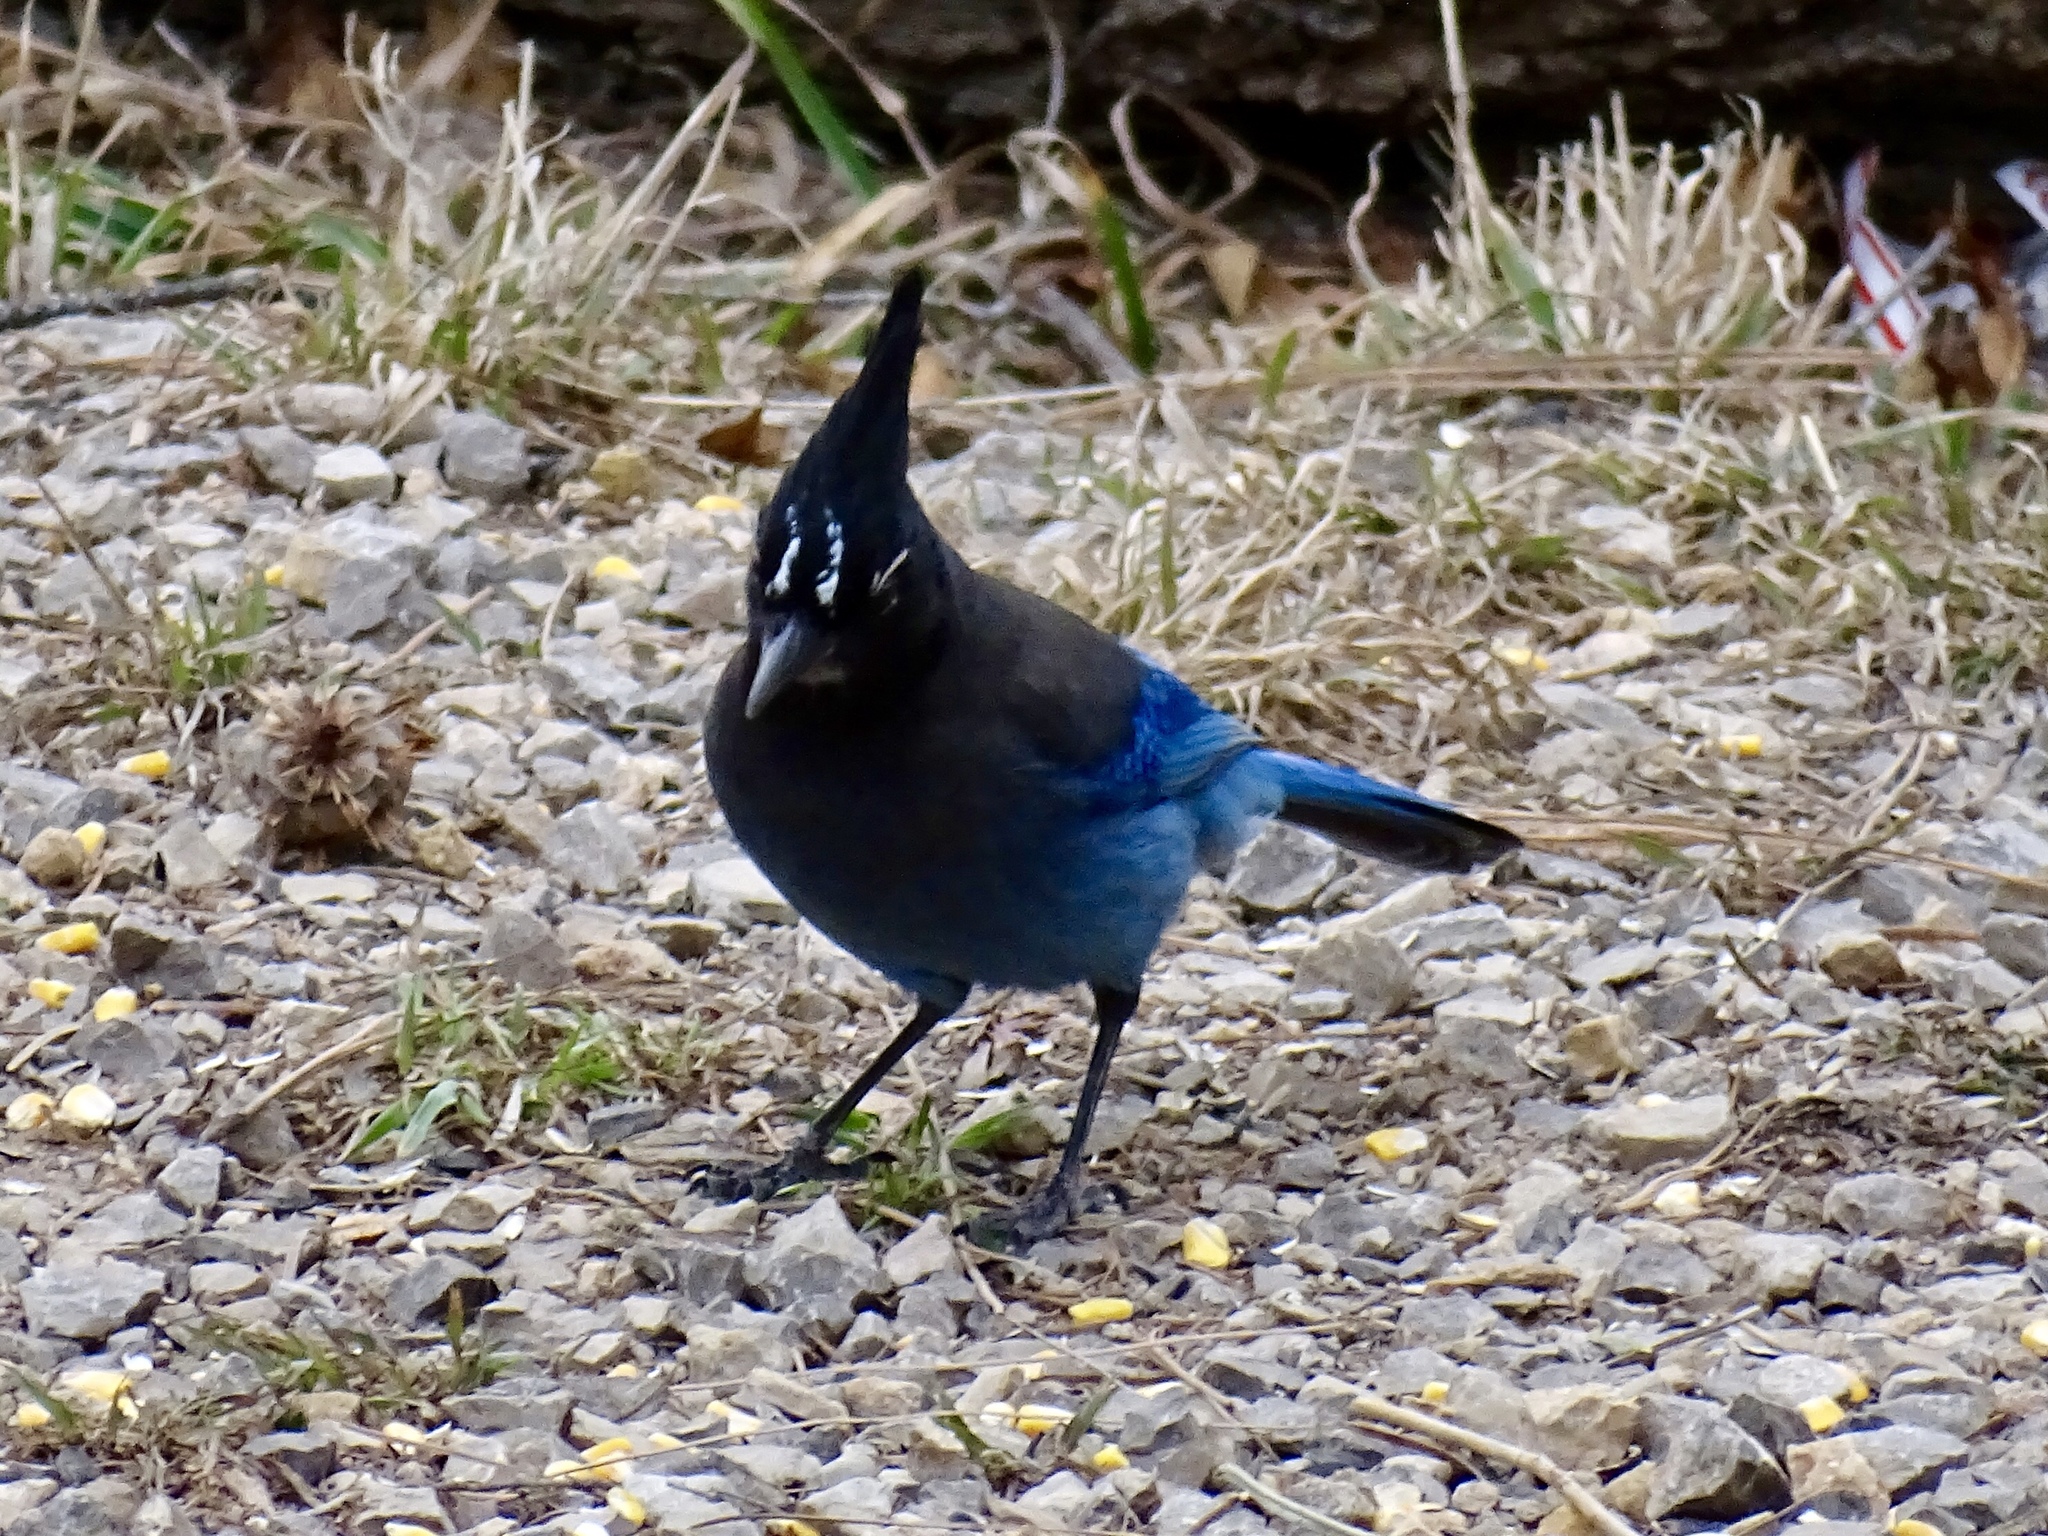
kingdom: Animalia
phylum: Chordata
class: Aves
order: Passeriformes
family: Corvidae
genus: Cyanocitta
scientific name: Cyanocitta stelleri
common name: Steller's jay
